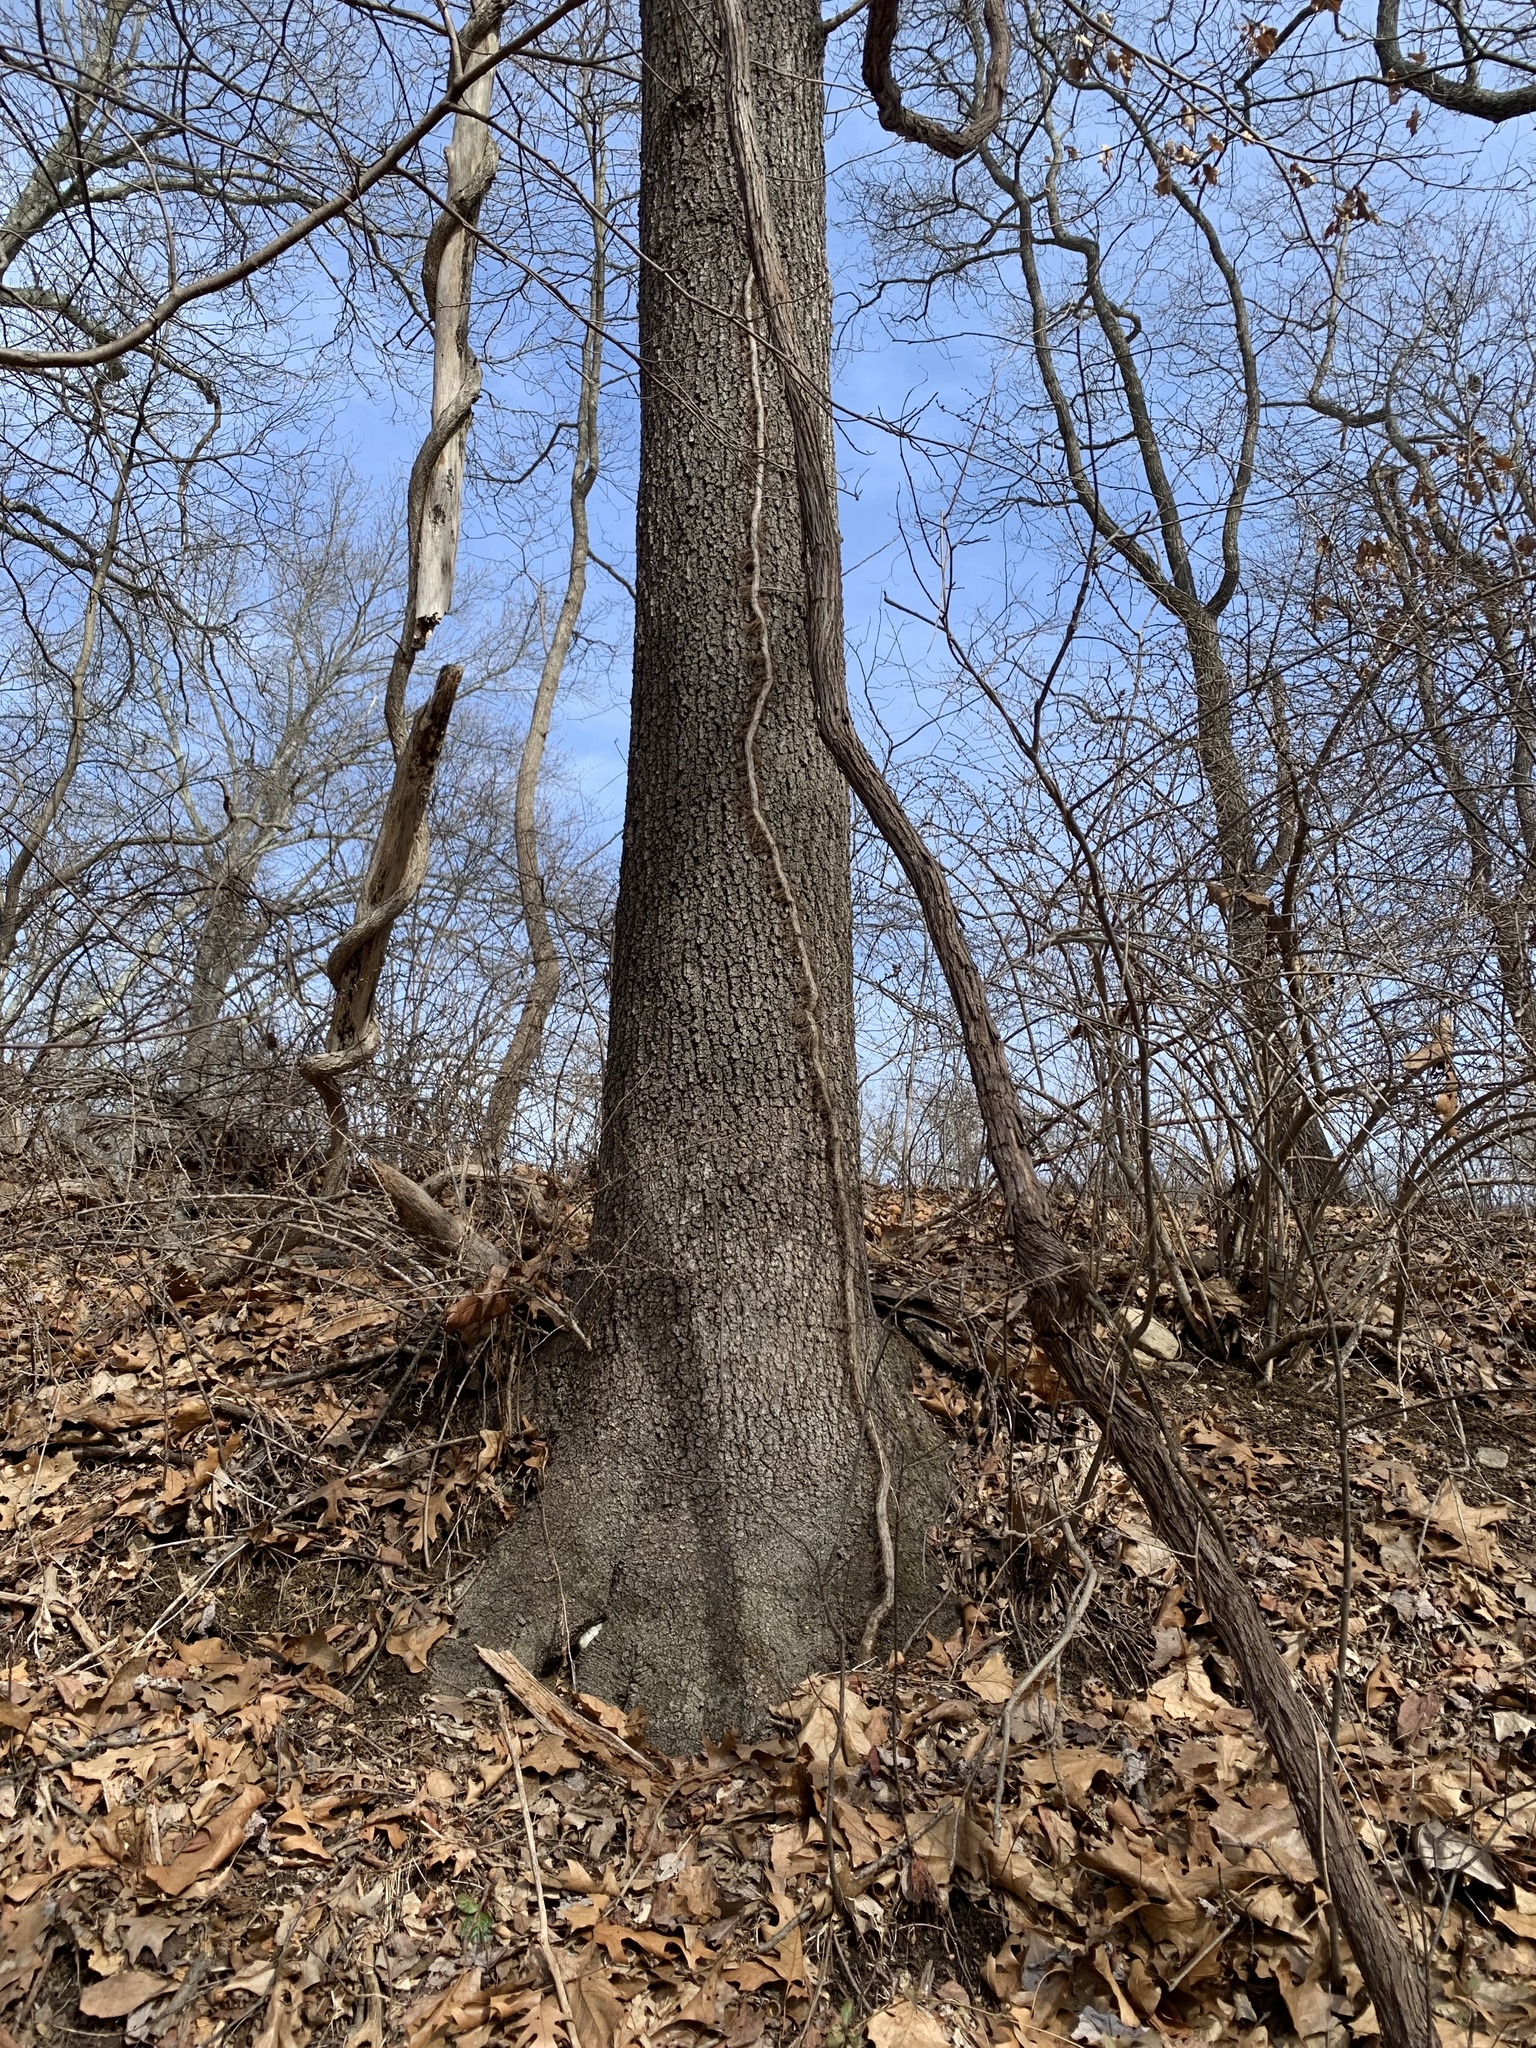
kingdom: Plantae
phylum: Tracheophyta
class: Magnoliopsida
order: Fagales
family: Fagaceae
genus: Quercus
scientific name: Quercus velutina
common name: Black oak
